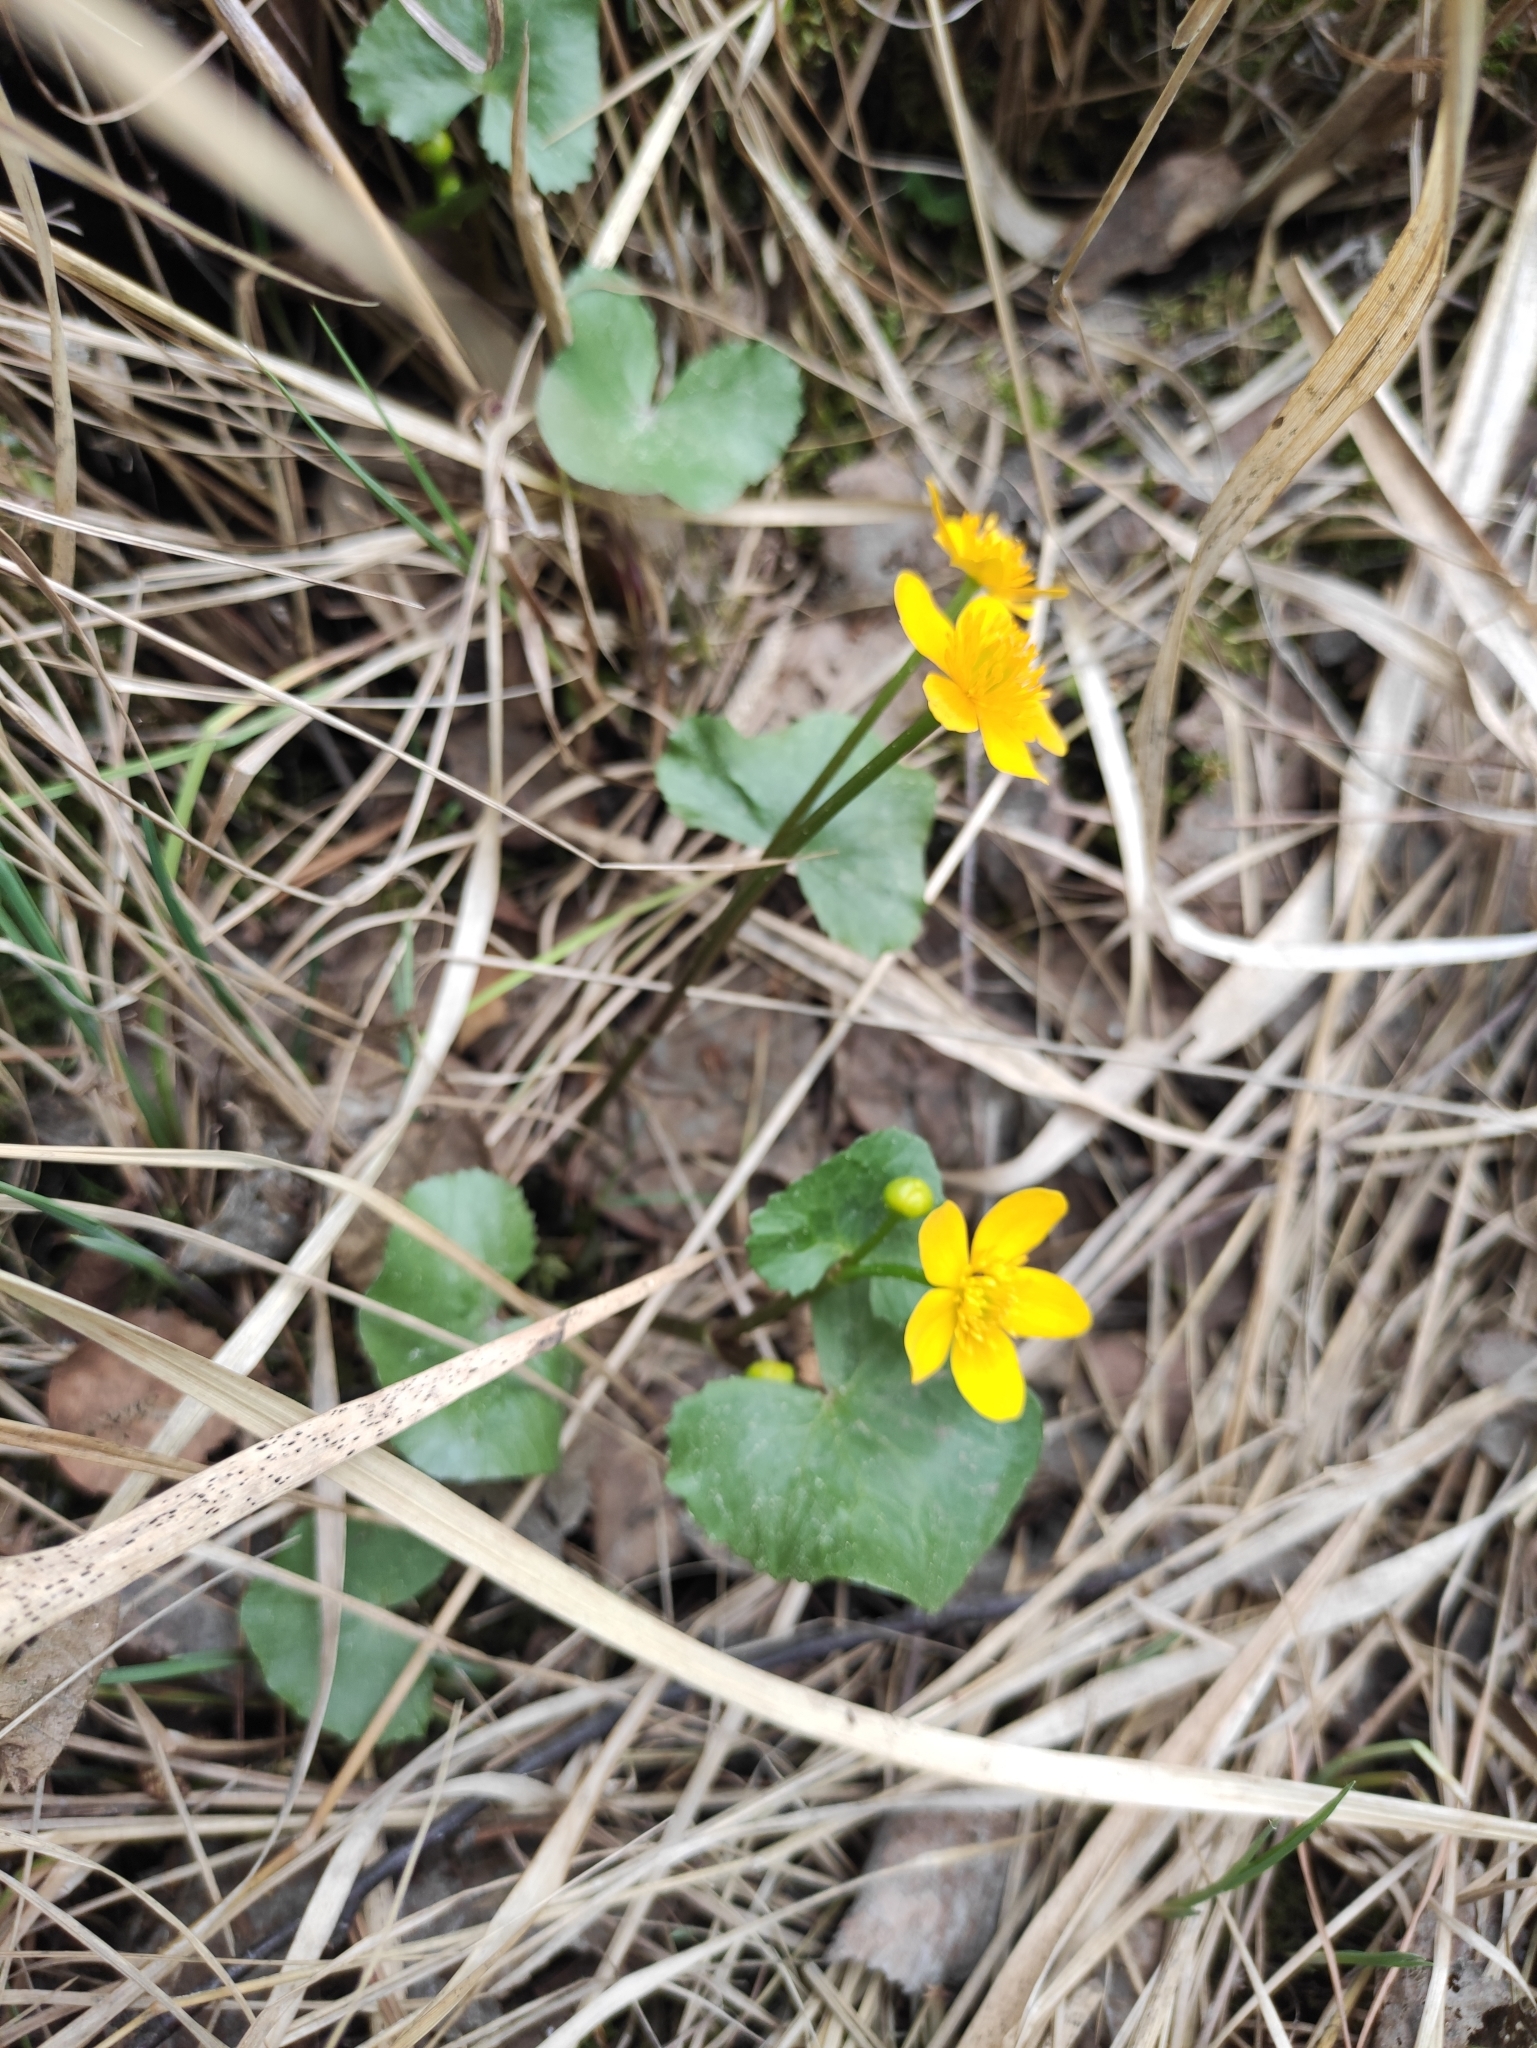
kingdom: Plantae
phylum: Tracheophyta
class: Magnoliopsida
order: Ranunculales
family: Ranunculaceae
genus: Caltha
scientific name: Caltha palustris
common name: Marsh marigold
